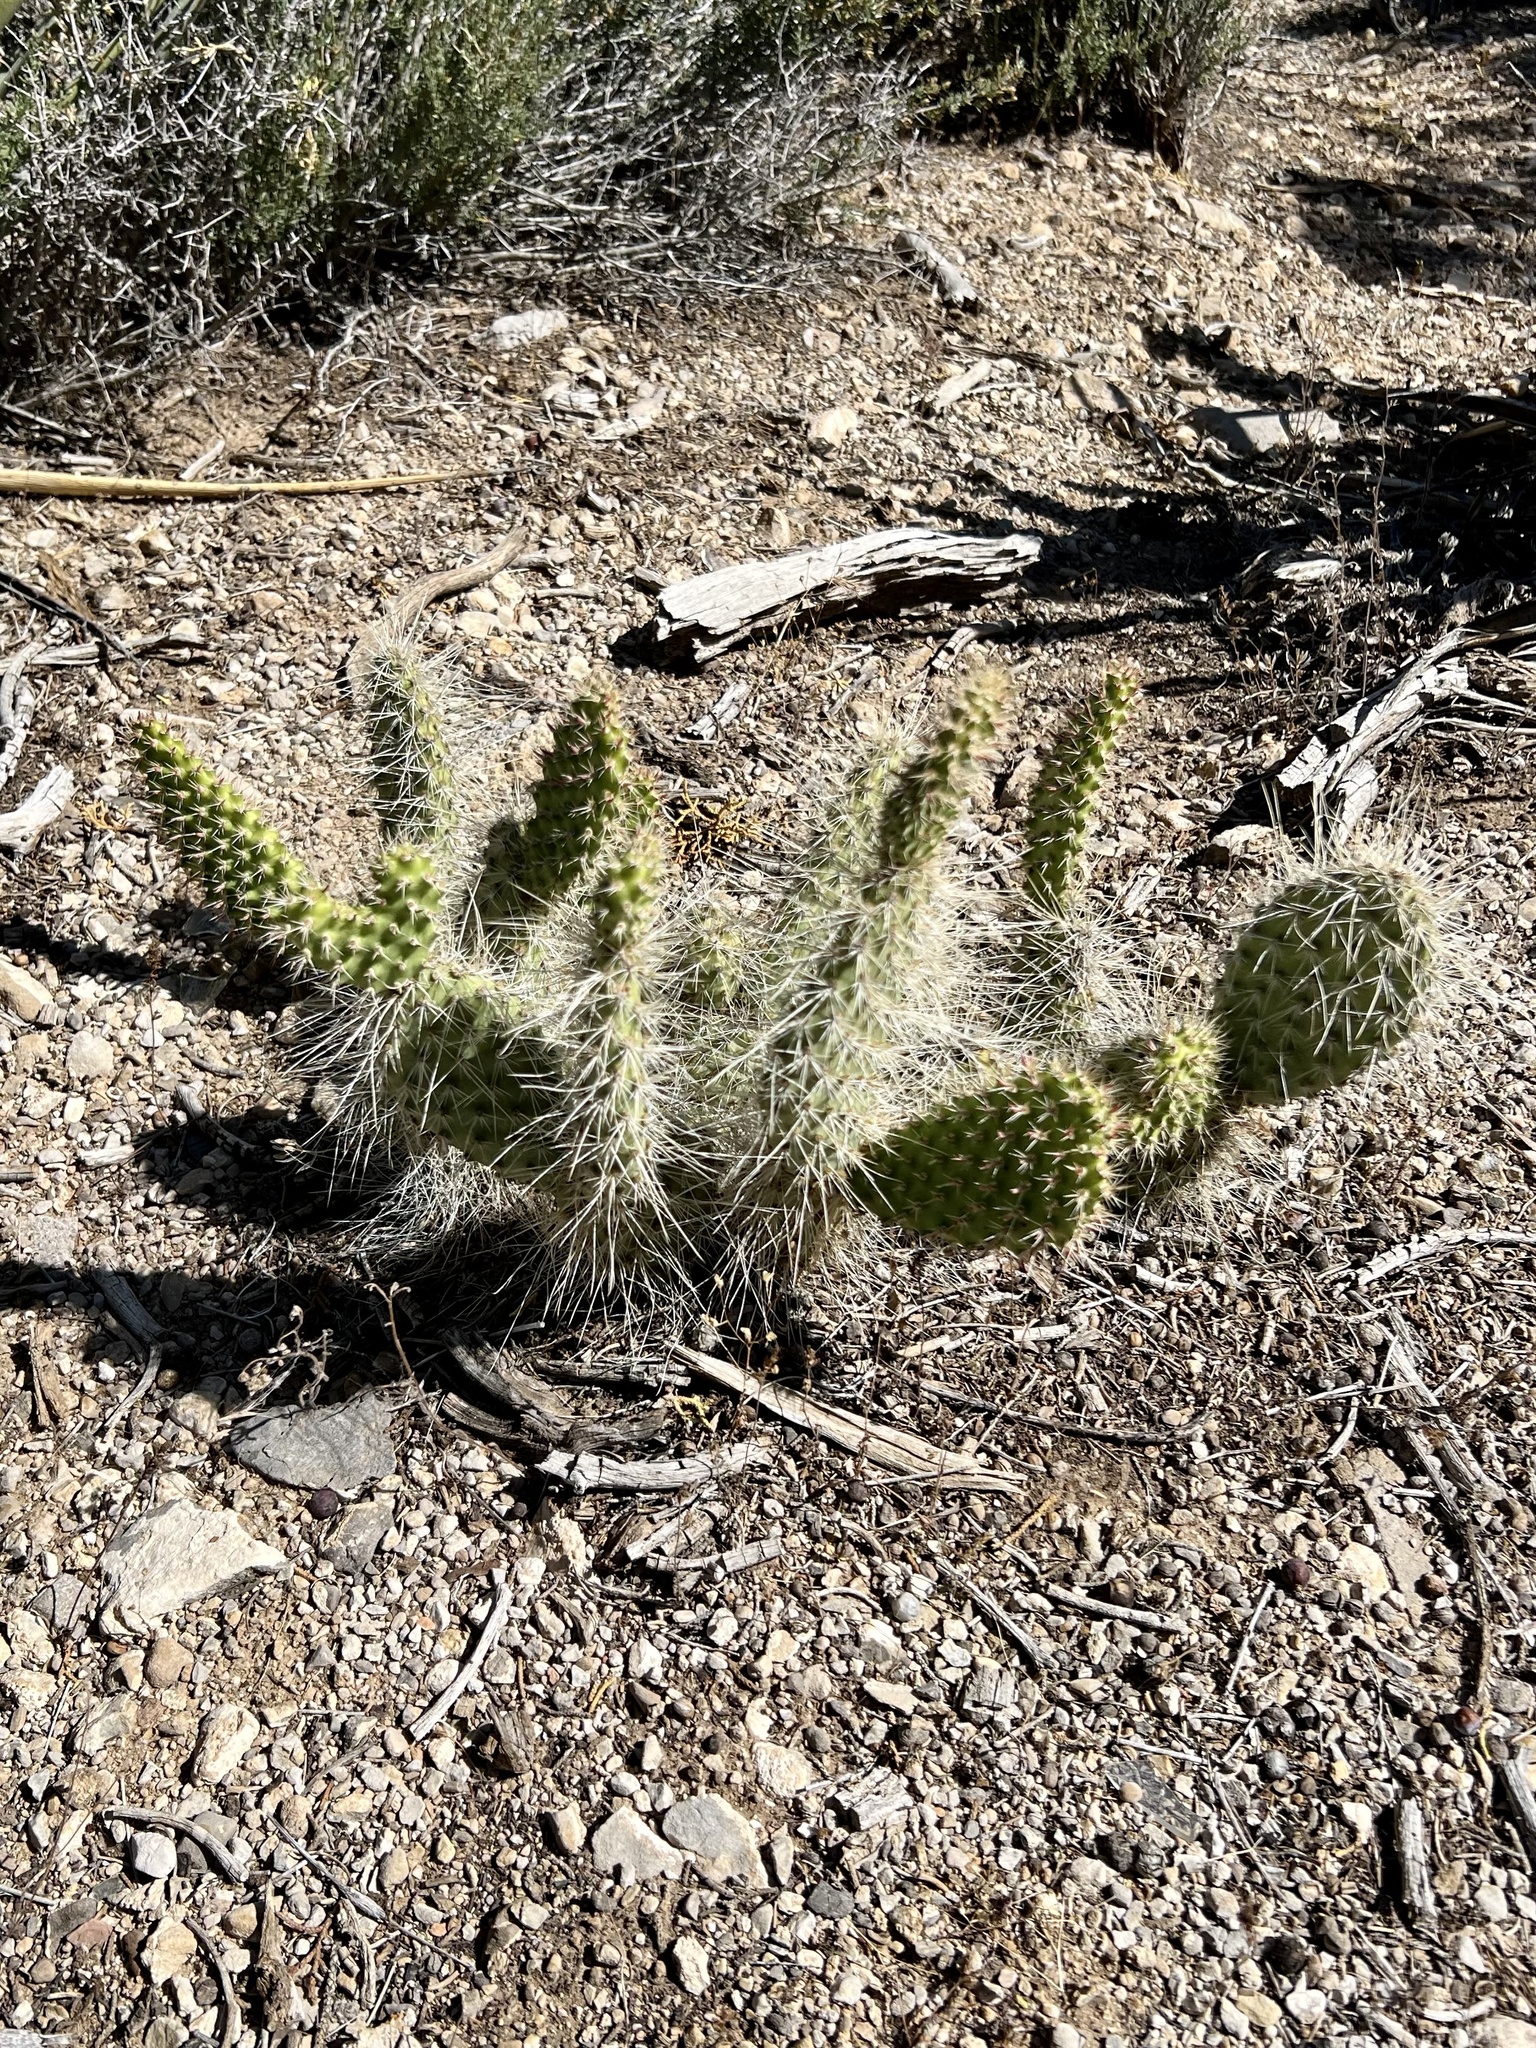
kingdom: Plantae
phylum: Tracheophyta
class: Magnoliopsida
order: Caryophyllales
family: Cactaceae
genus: Opuntia
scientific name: Opuntia polyacantha
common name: Plains prickly-pear
